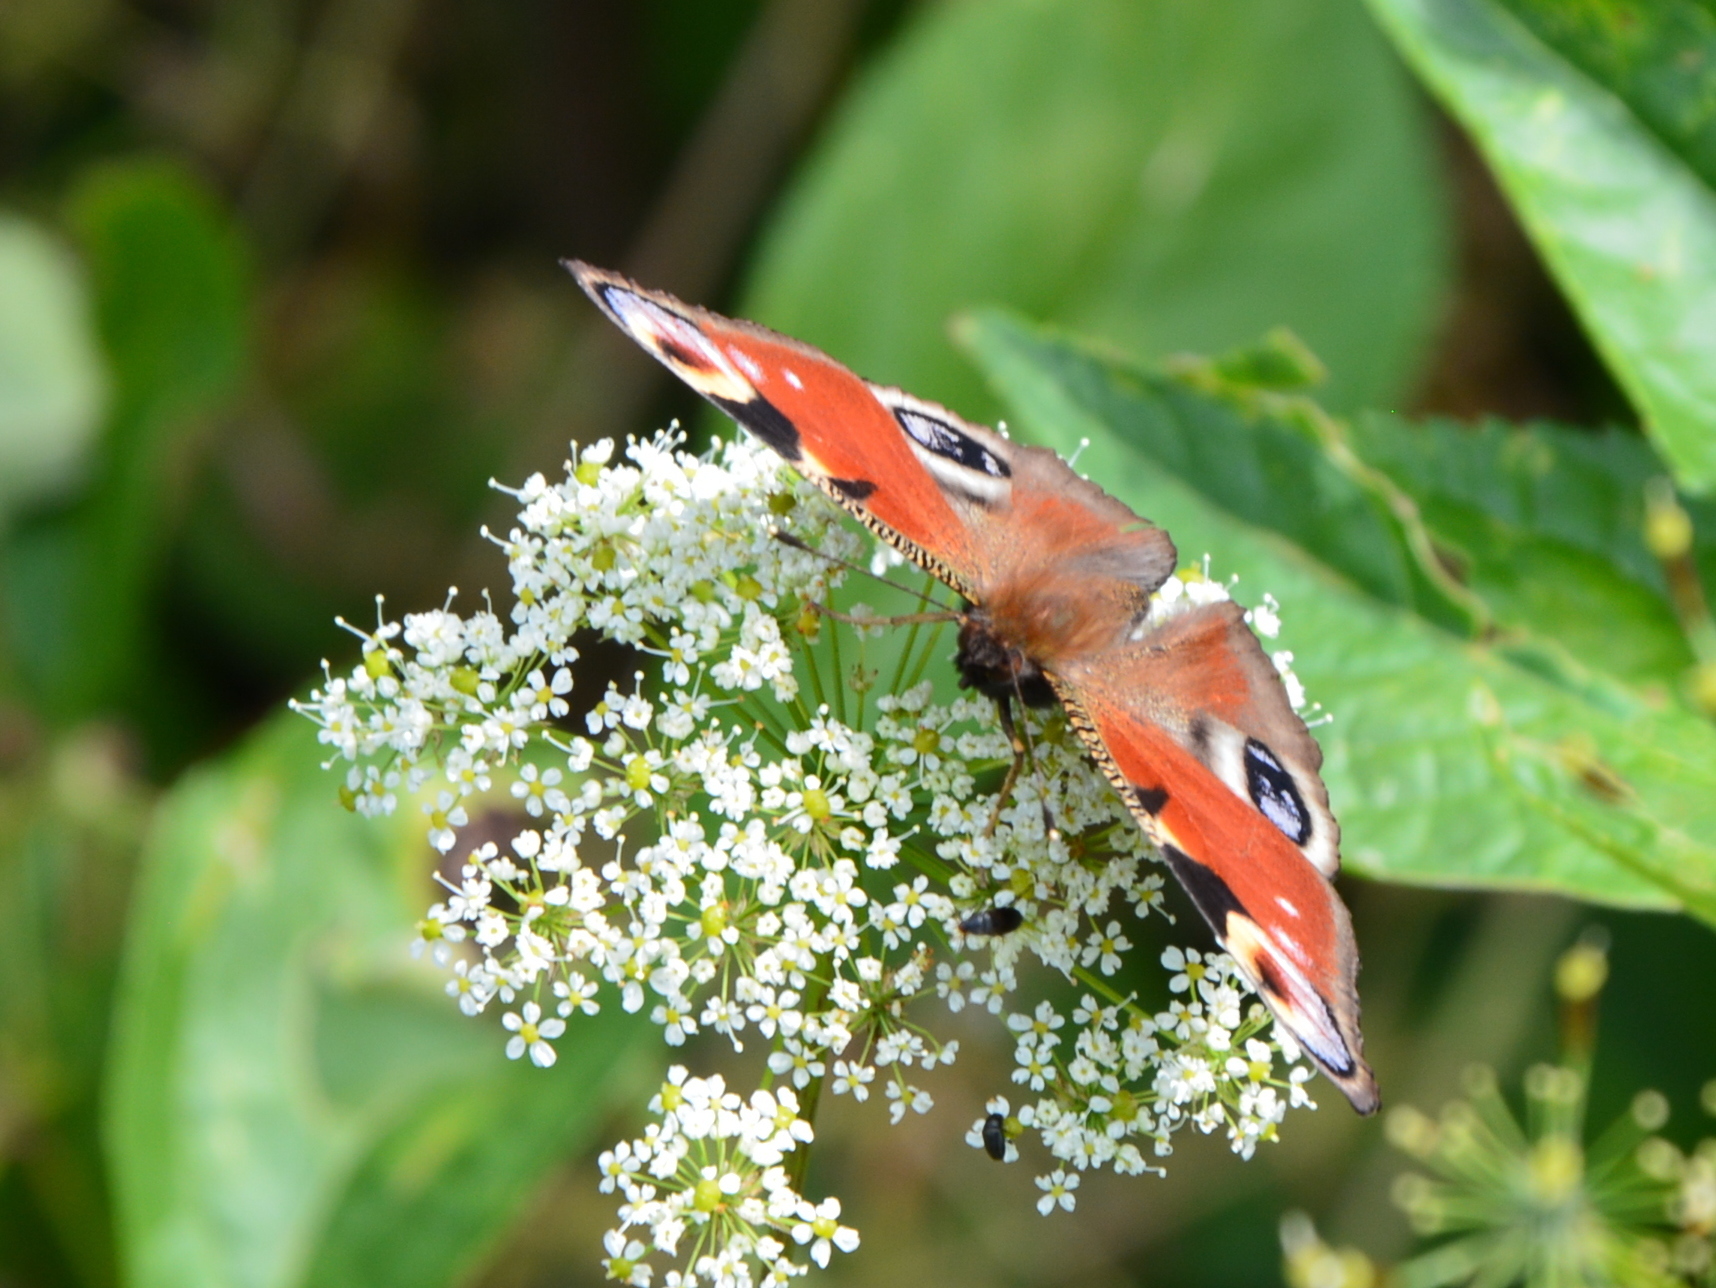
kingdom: Animalia
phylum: Arthropoda
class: Insecta
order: Lepidoptera
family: Nymphalidae
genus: Aglais
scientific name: Aglais io
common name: Peacock
